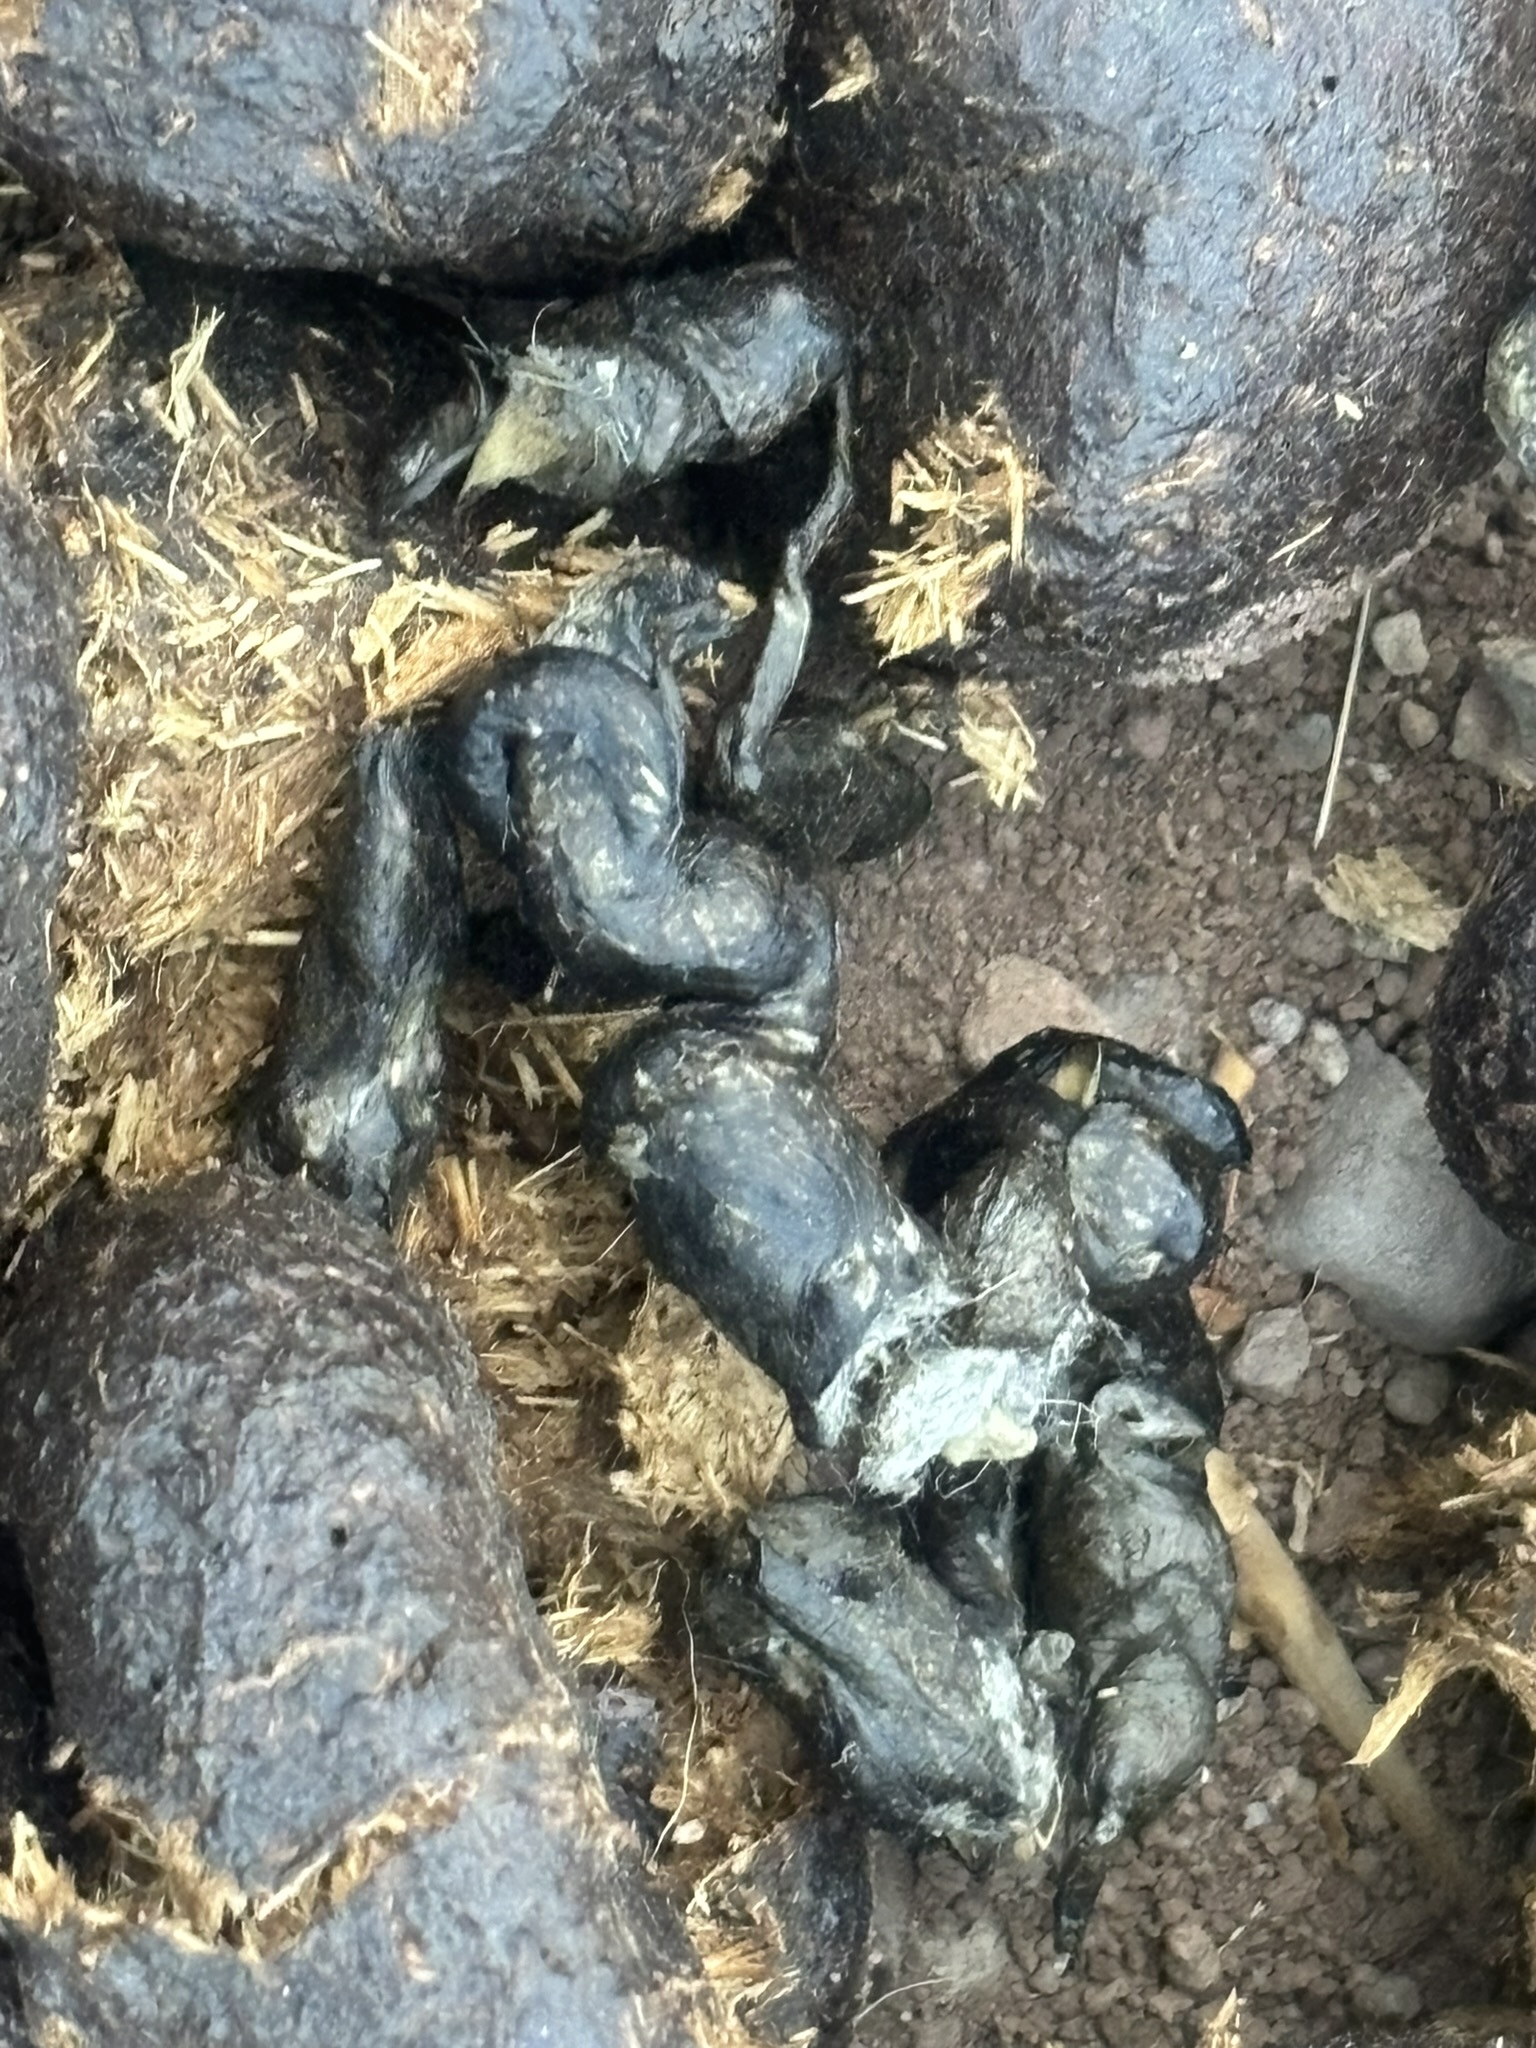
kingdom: Animalia
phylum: Chordata
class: Mammalia
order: Carnivora
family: Felidae
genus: Lynx
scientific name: Lynx rufus
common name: Bobcat
